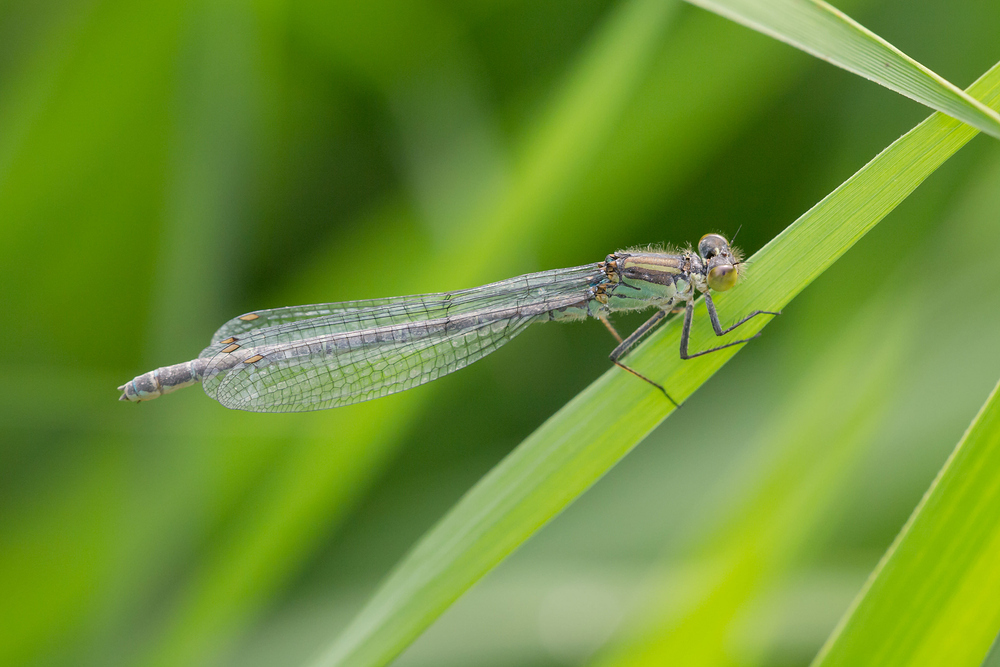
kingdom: Animalia
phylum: Arthropoda
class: Insecta
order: Odonata
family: Coenagrionidae
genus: Erythromma
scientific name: Erythromma najas
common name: Red-eyed damselfly
